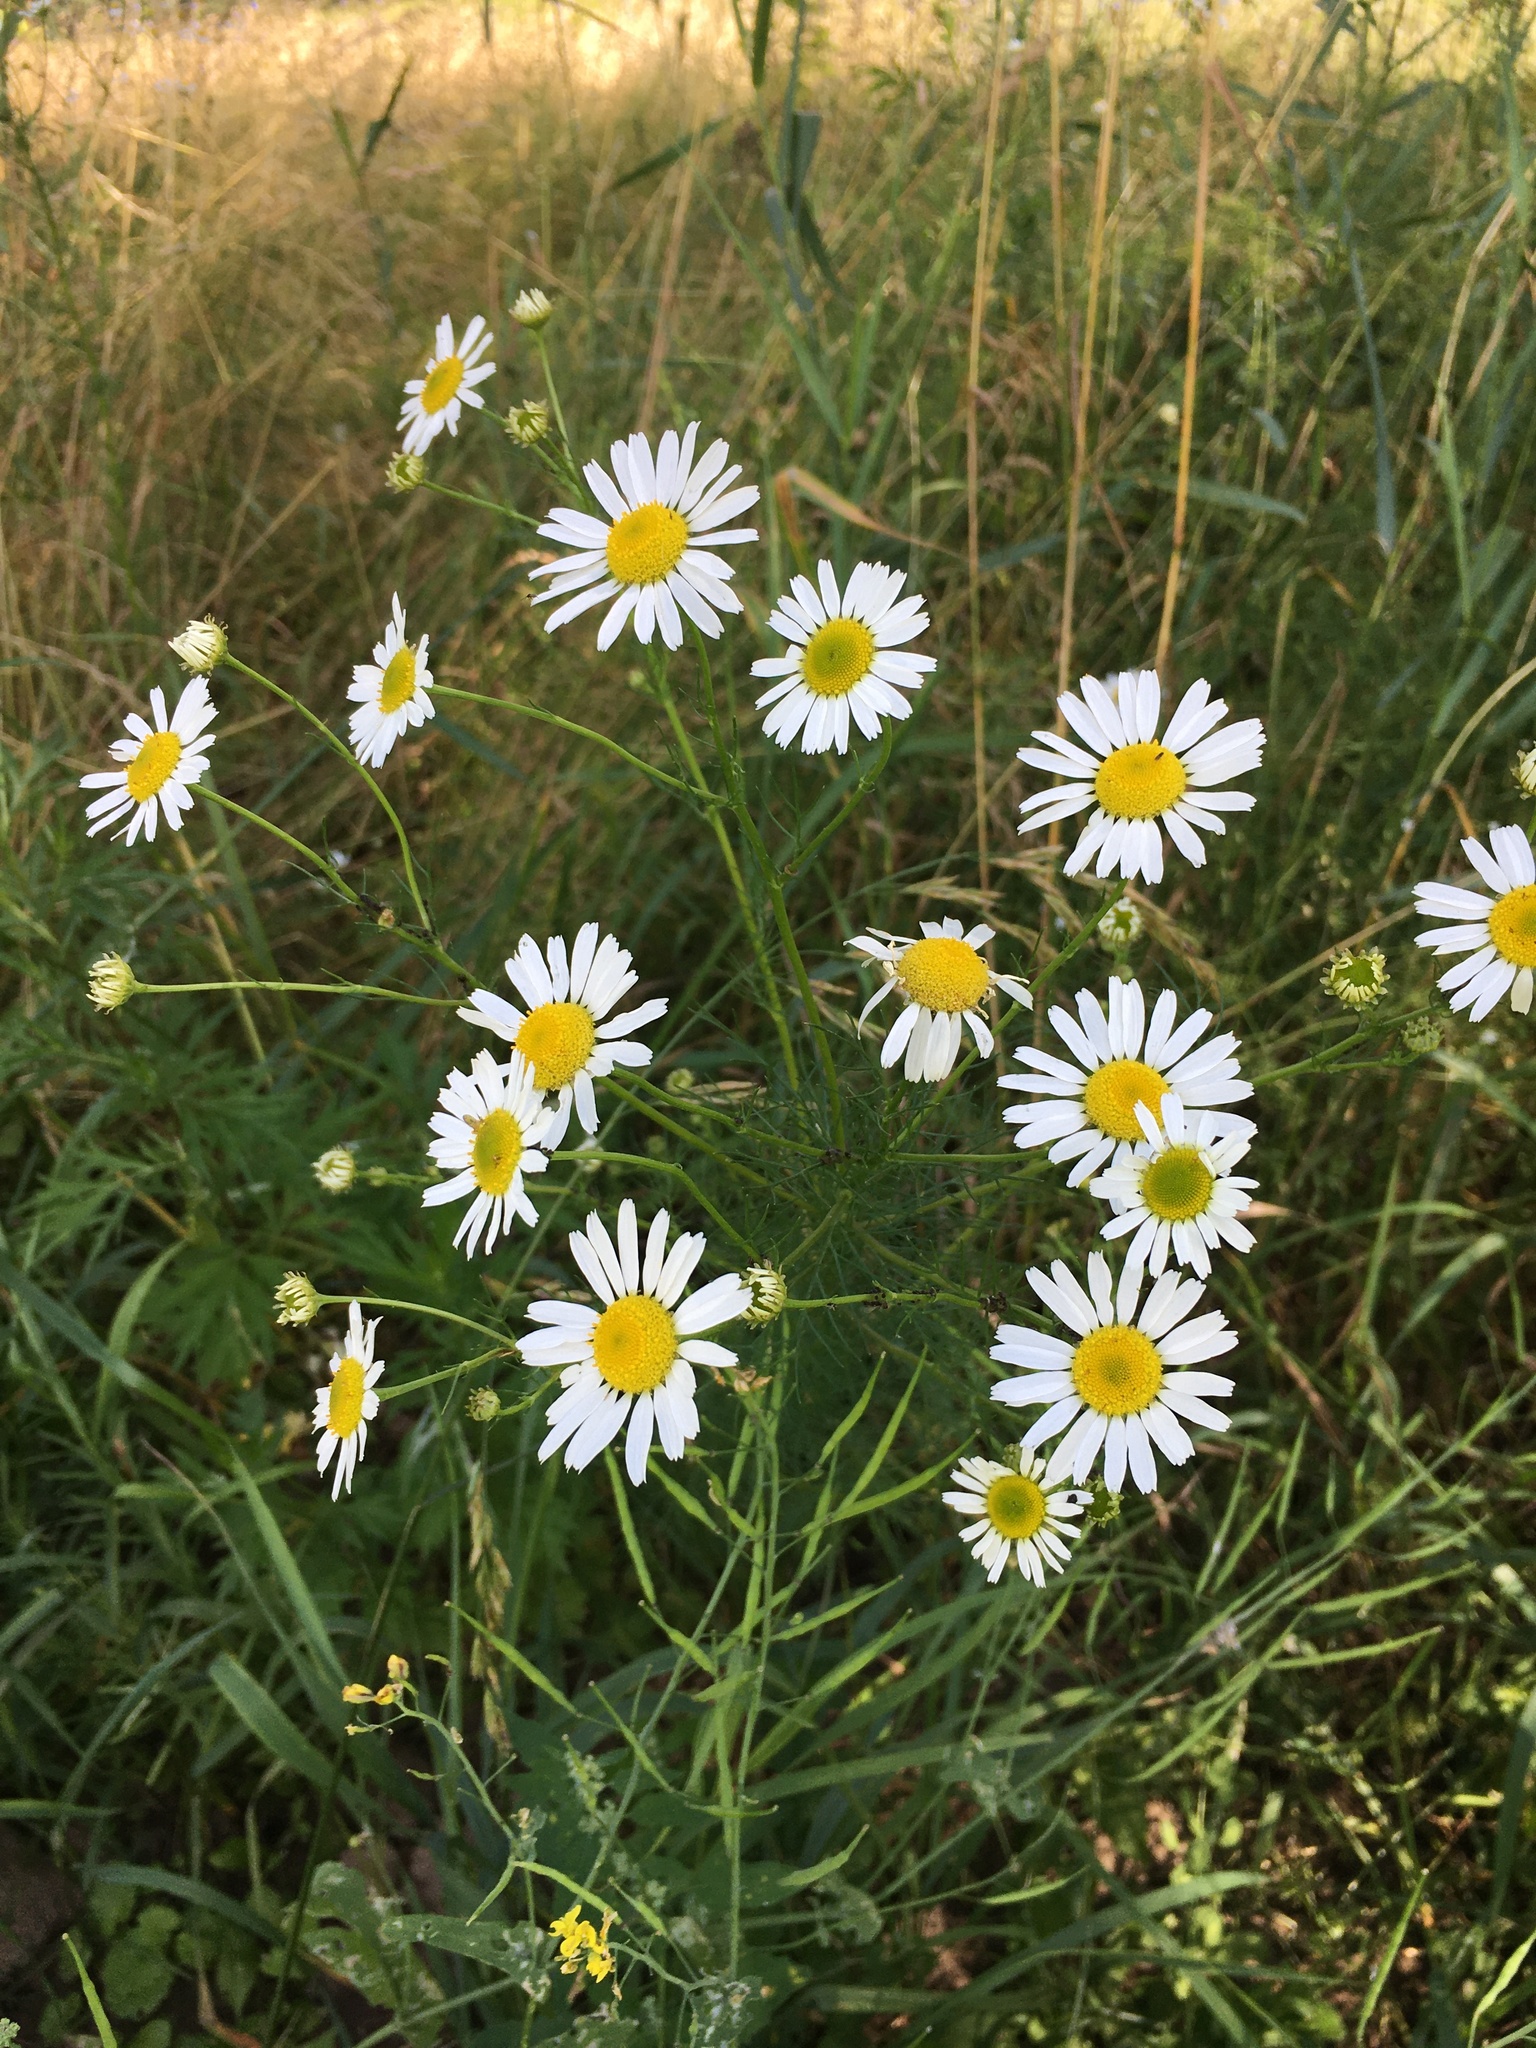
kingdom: Plantae
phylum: Tracheophyta
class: Magnoliopsida
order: Asterales
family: Asteraceae
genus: Tripleurospermum
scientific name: Tripleurospermum inodorum
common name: Scentless mayweed
